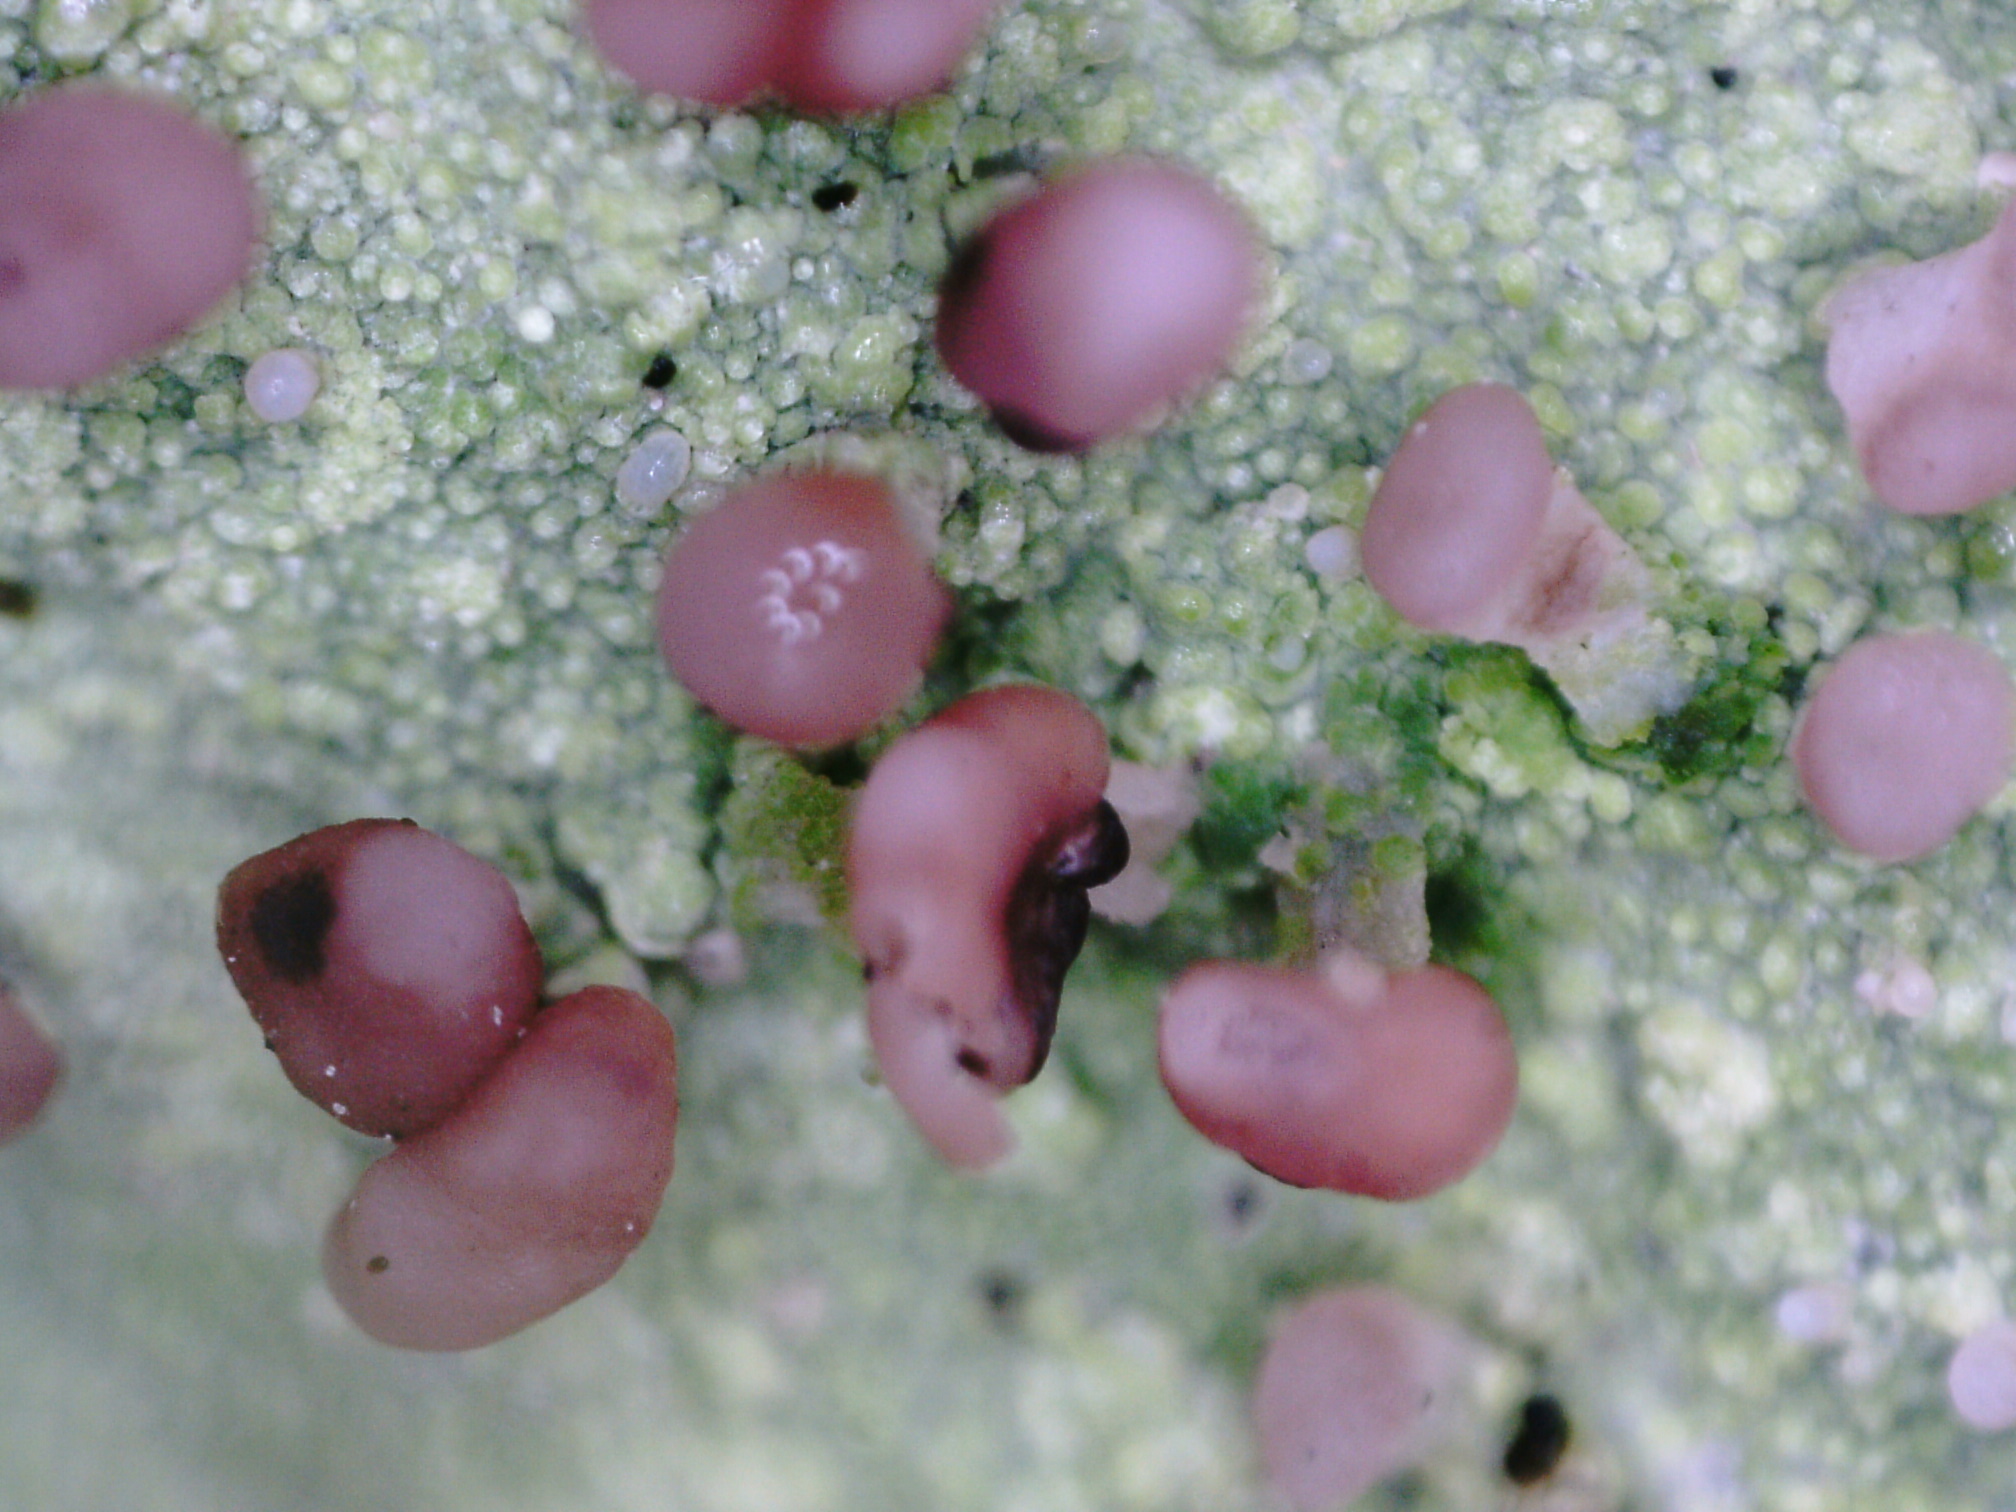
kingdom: Fungi
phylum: Ascomycota
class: Lecanoromycetes
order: Baeomycetales
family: Baeomycetaceae
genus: Baeomyces
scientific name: Baeomyces rufus
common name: Brown beret lichen
